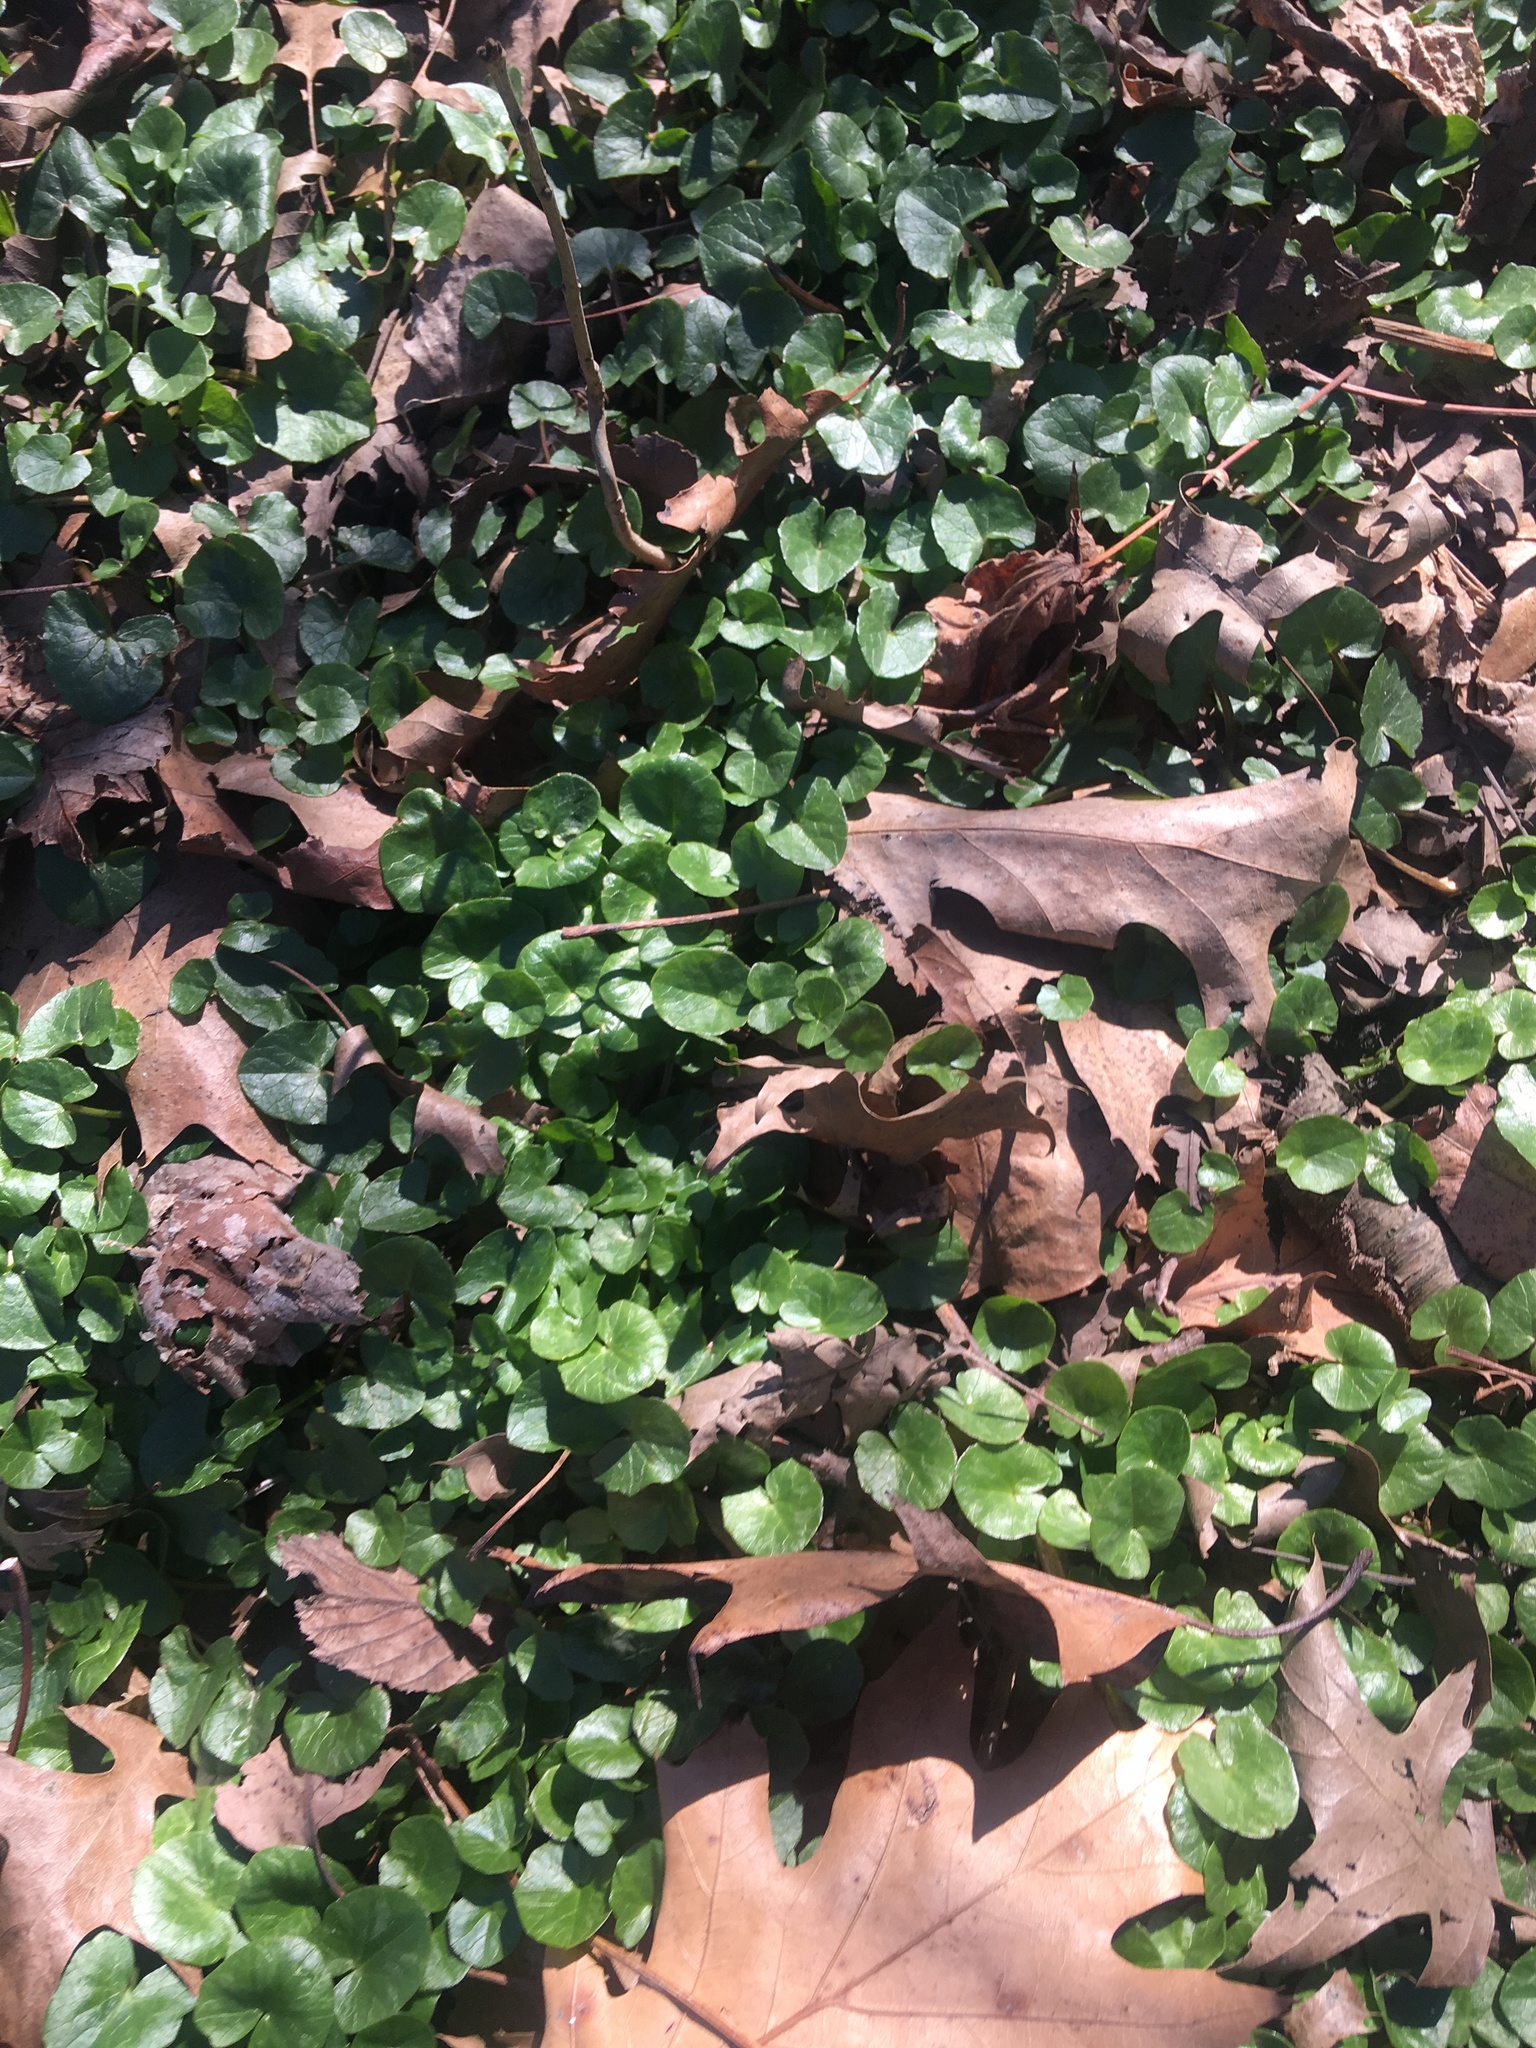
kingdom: Plantae
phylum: Tracheophyta
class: Magnoliopsida
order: Ranunculales
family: Ranunculaceae
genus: Ficaria
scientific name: Ficaria verna
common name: Lesser celandine
